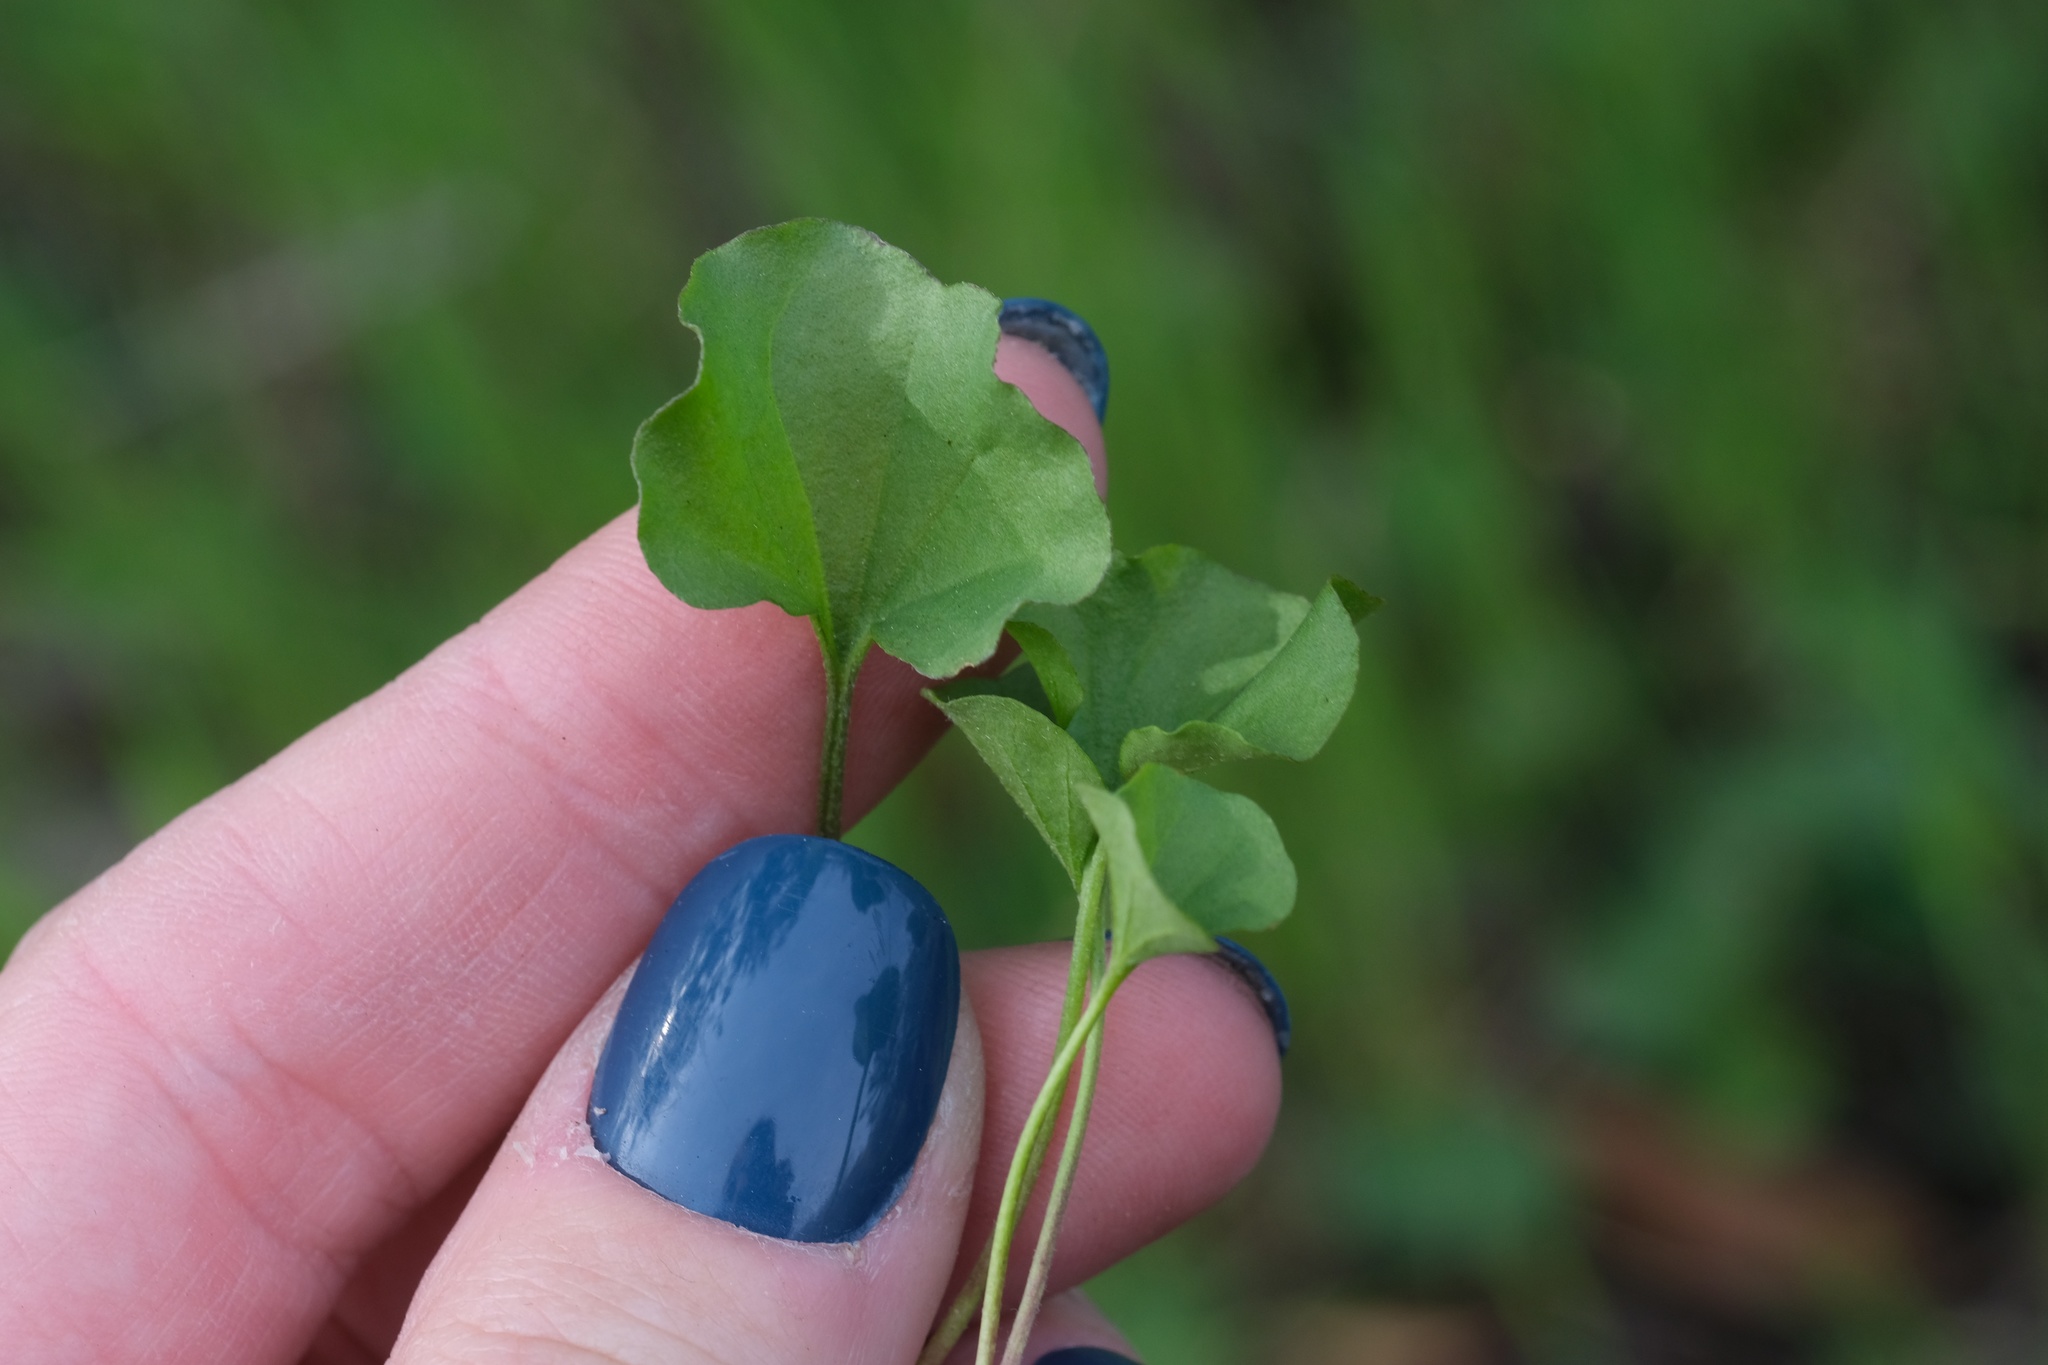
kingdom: Plantae
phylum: Tracheophyta
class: Magnoliopsida
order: Solanales
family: Convolvulaceae
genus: Dichondra
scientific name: Dichondra occidentalis
